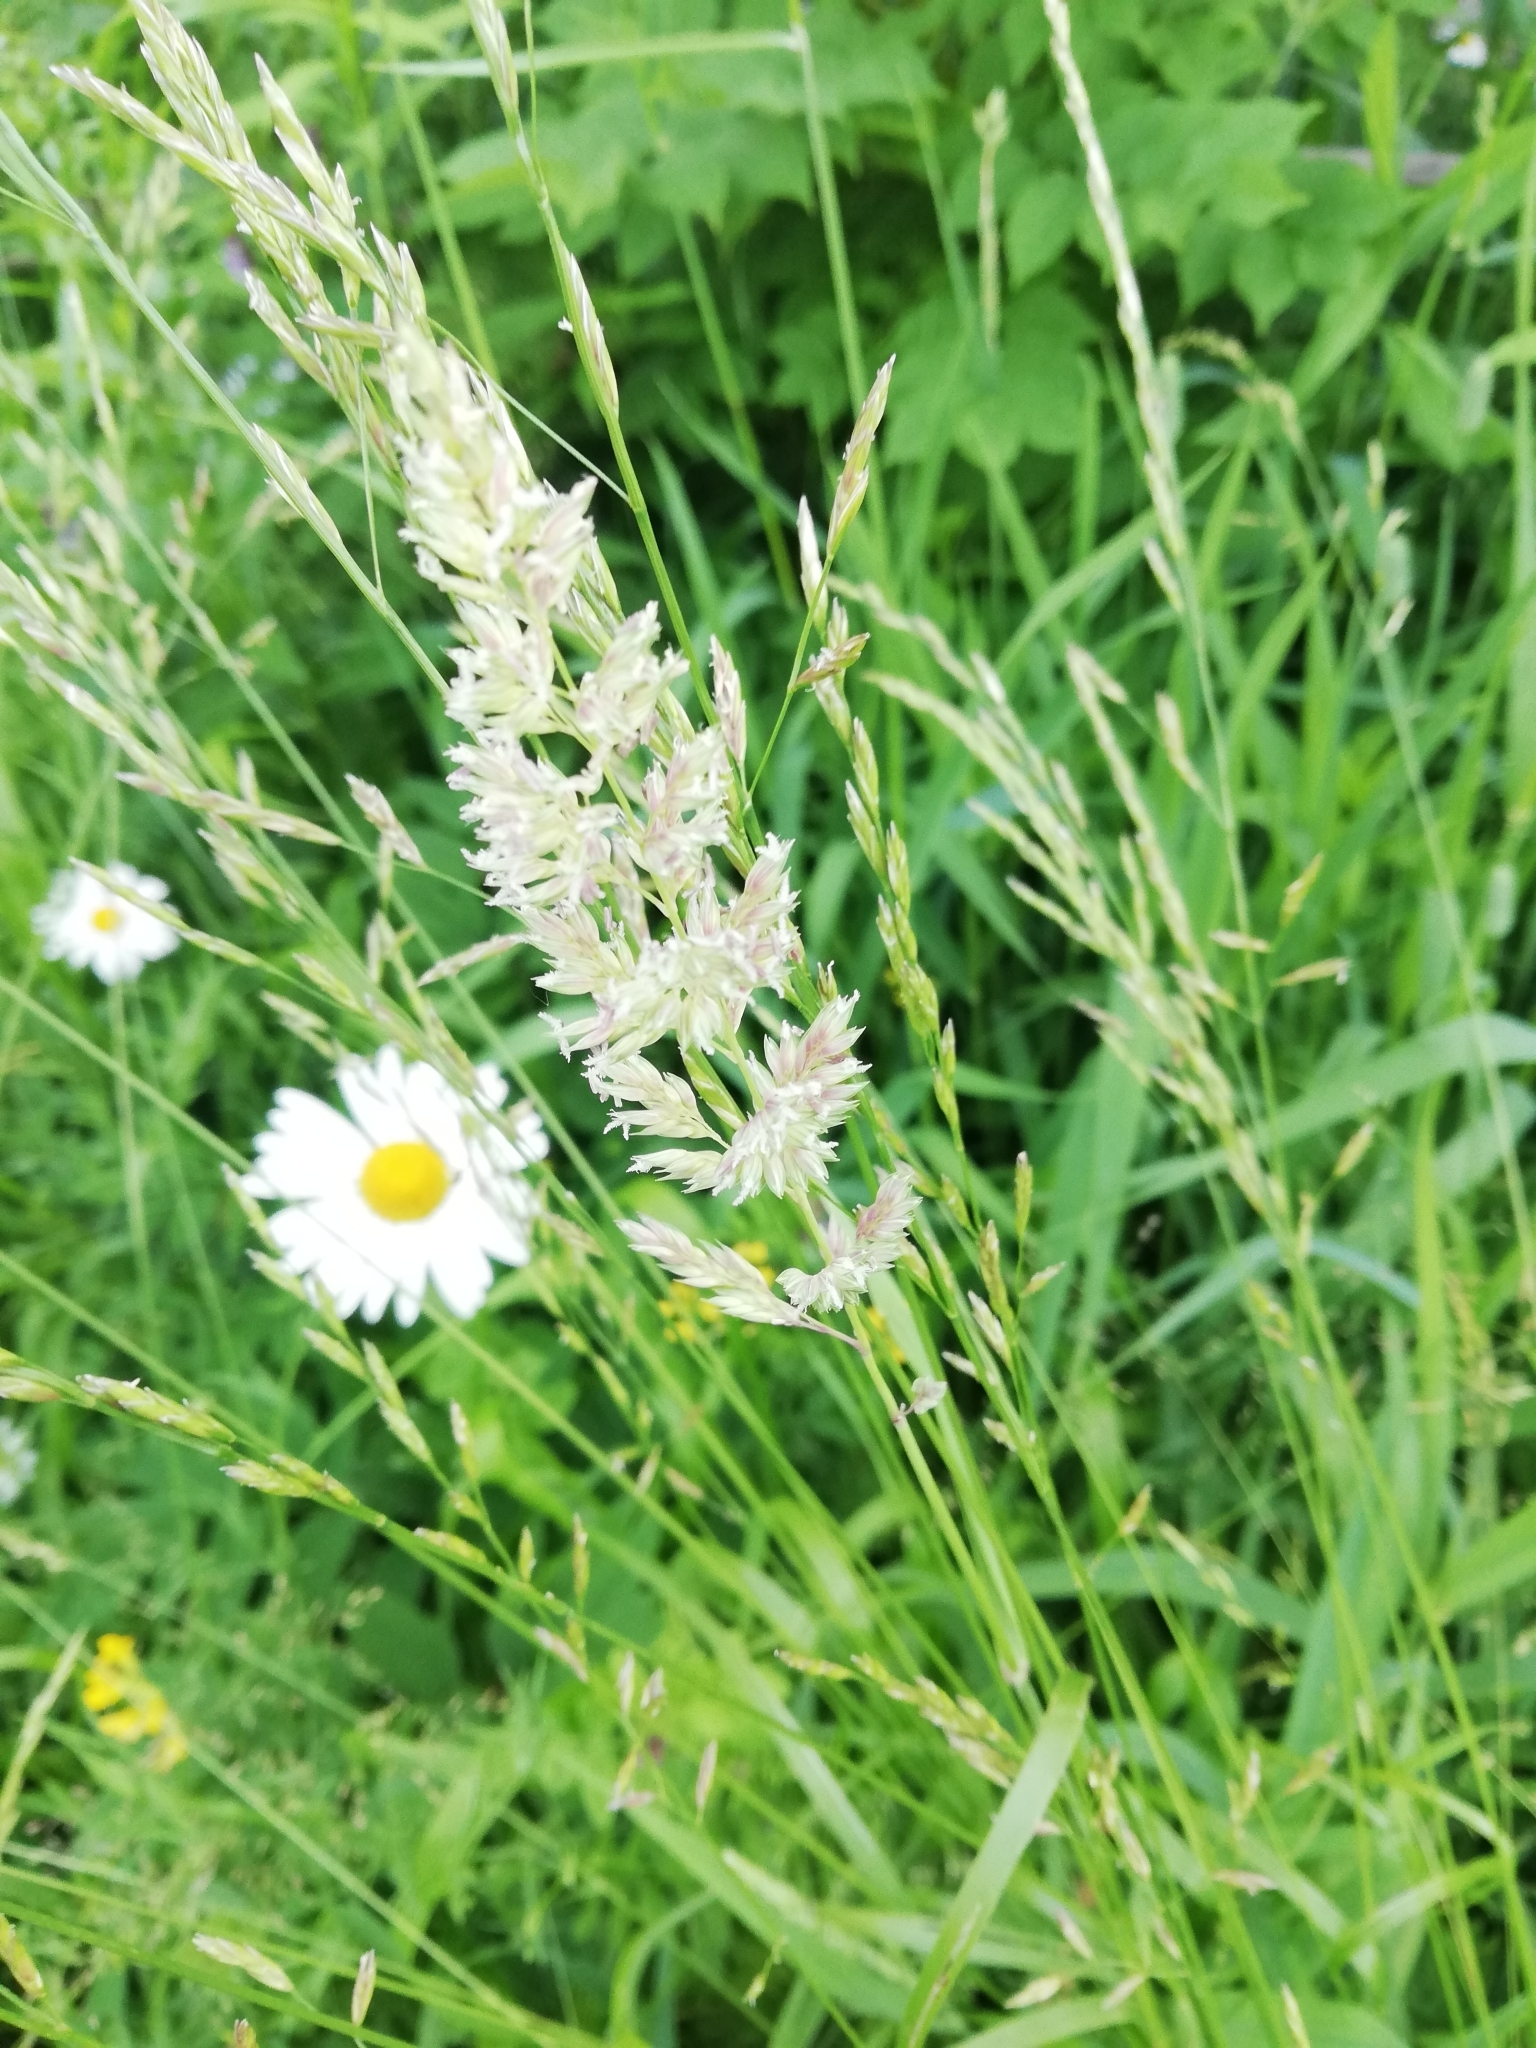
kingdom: Plantae
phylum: Tracheophyta
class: Liliopsida
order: Poales
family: Poaceae
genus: Phalaris
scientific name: Phalaris arundinacea
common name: Reed canary-grass
